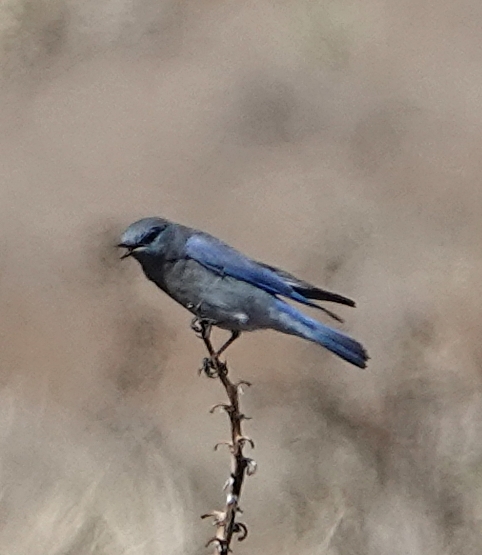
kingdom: Animalia
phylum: Chordata
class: Aves
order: Passeriformes
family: Turdidae
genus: Sialia
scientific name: Sialia currucoides
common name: Mountain bluebird
